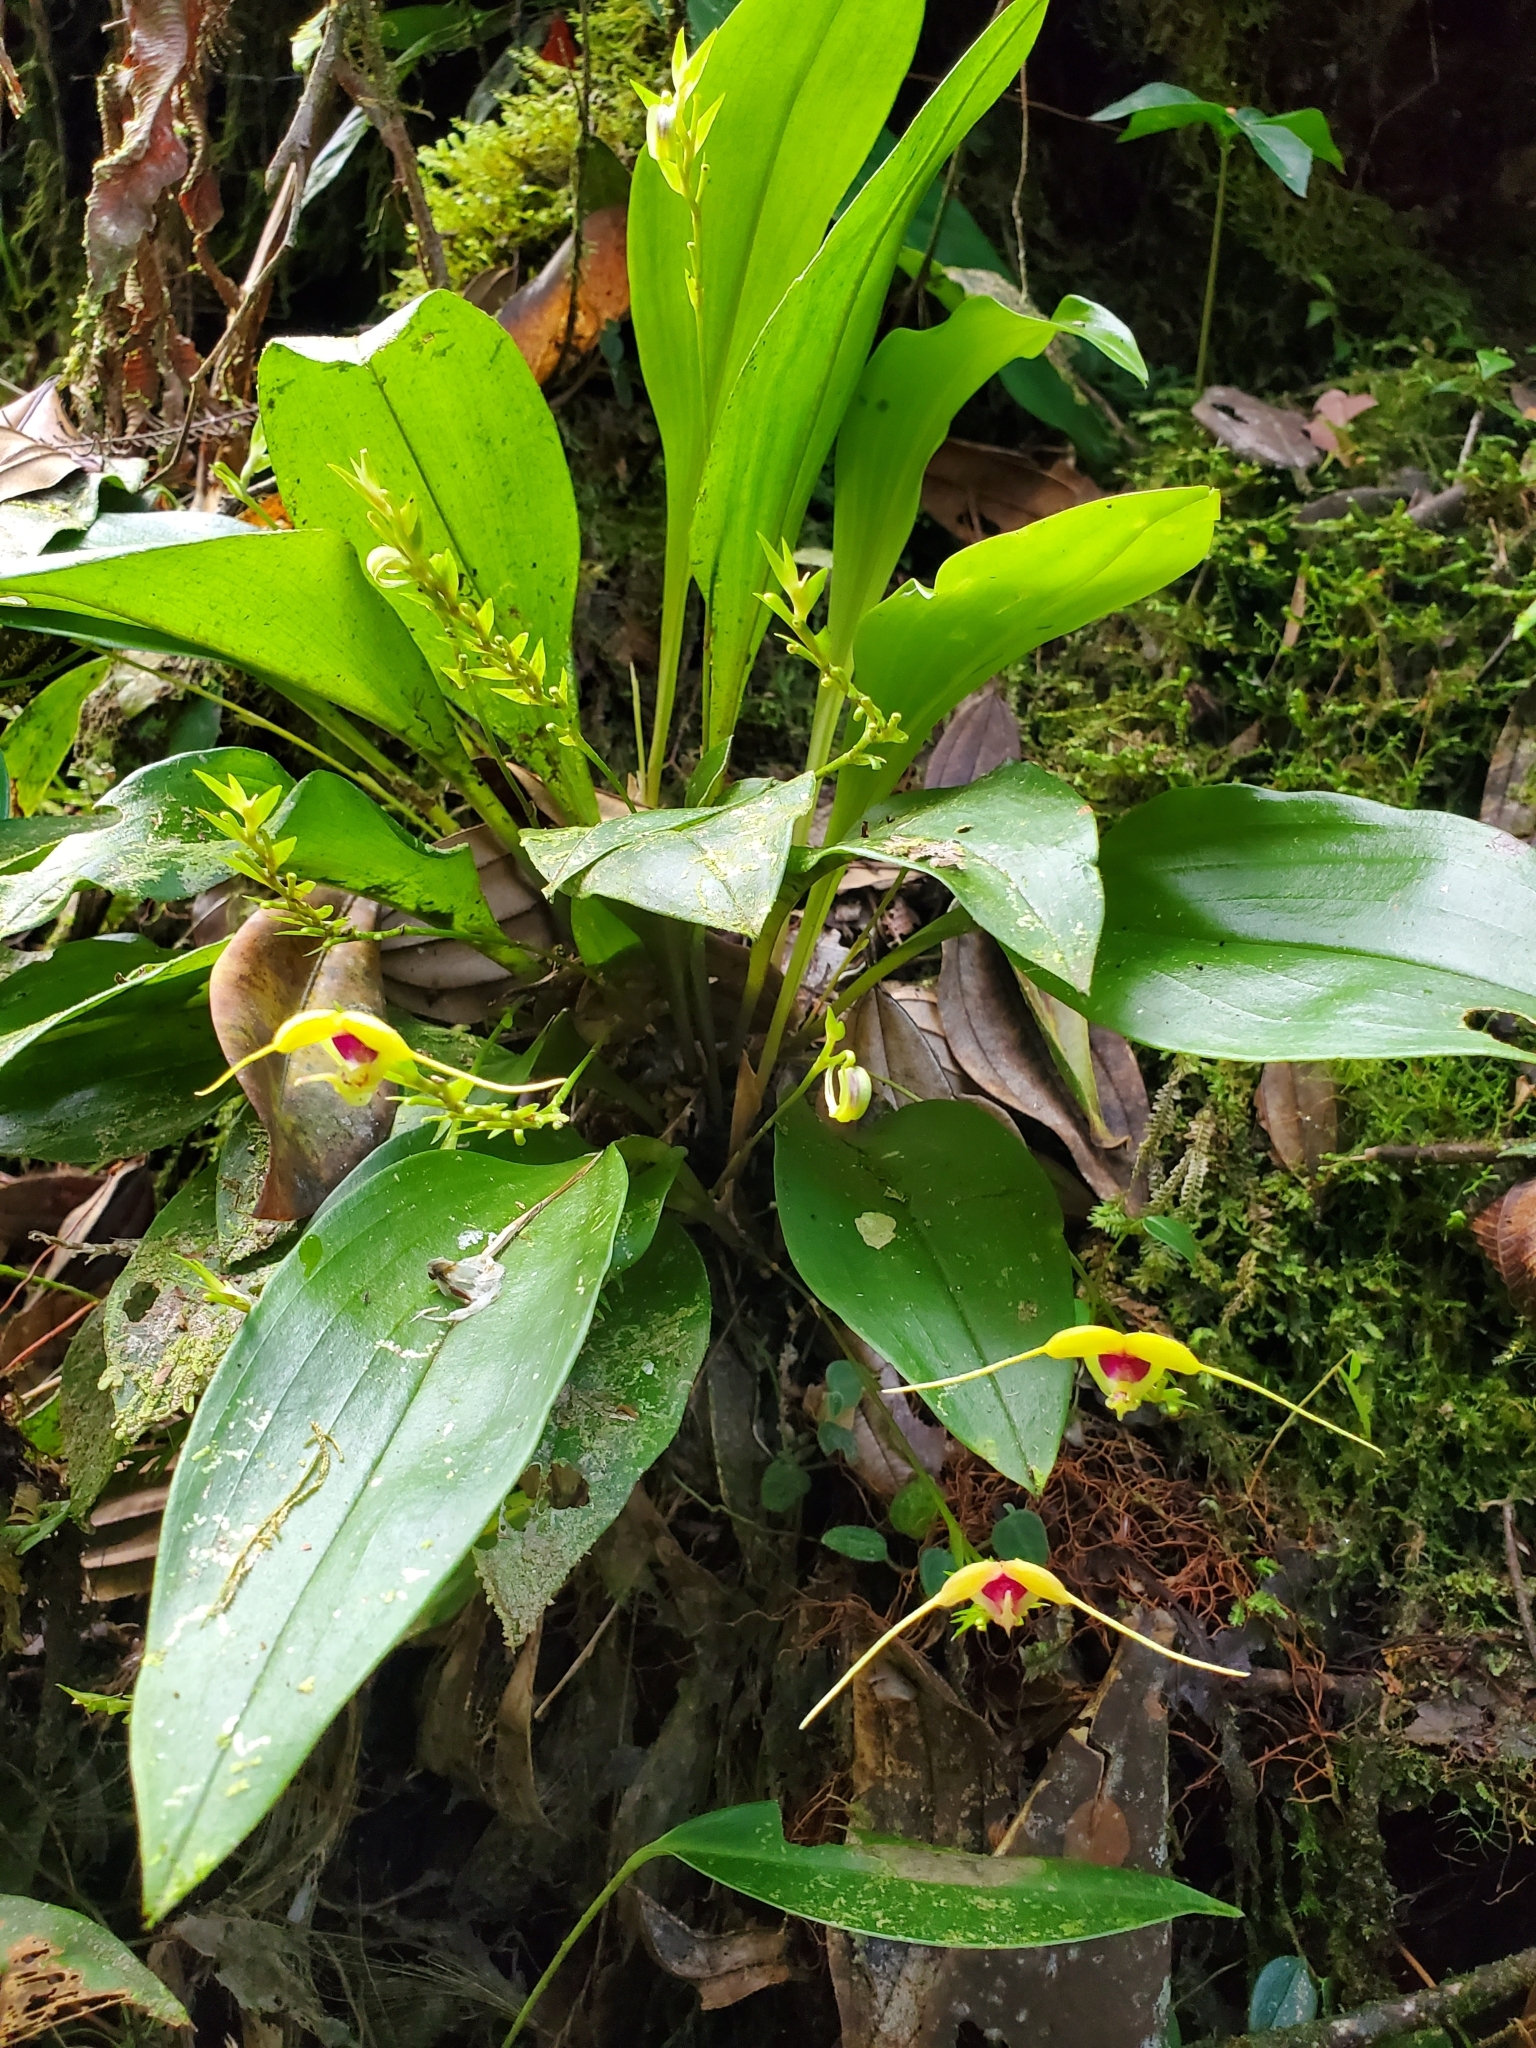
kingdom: Plantae
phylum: Tracheophyta
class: Liliopsida
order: Asparagales
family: Orchidaceae
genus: Scaphosepalum
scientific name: Scaphosepalum grande
